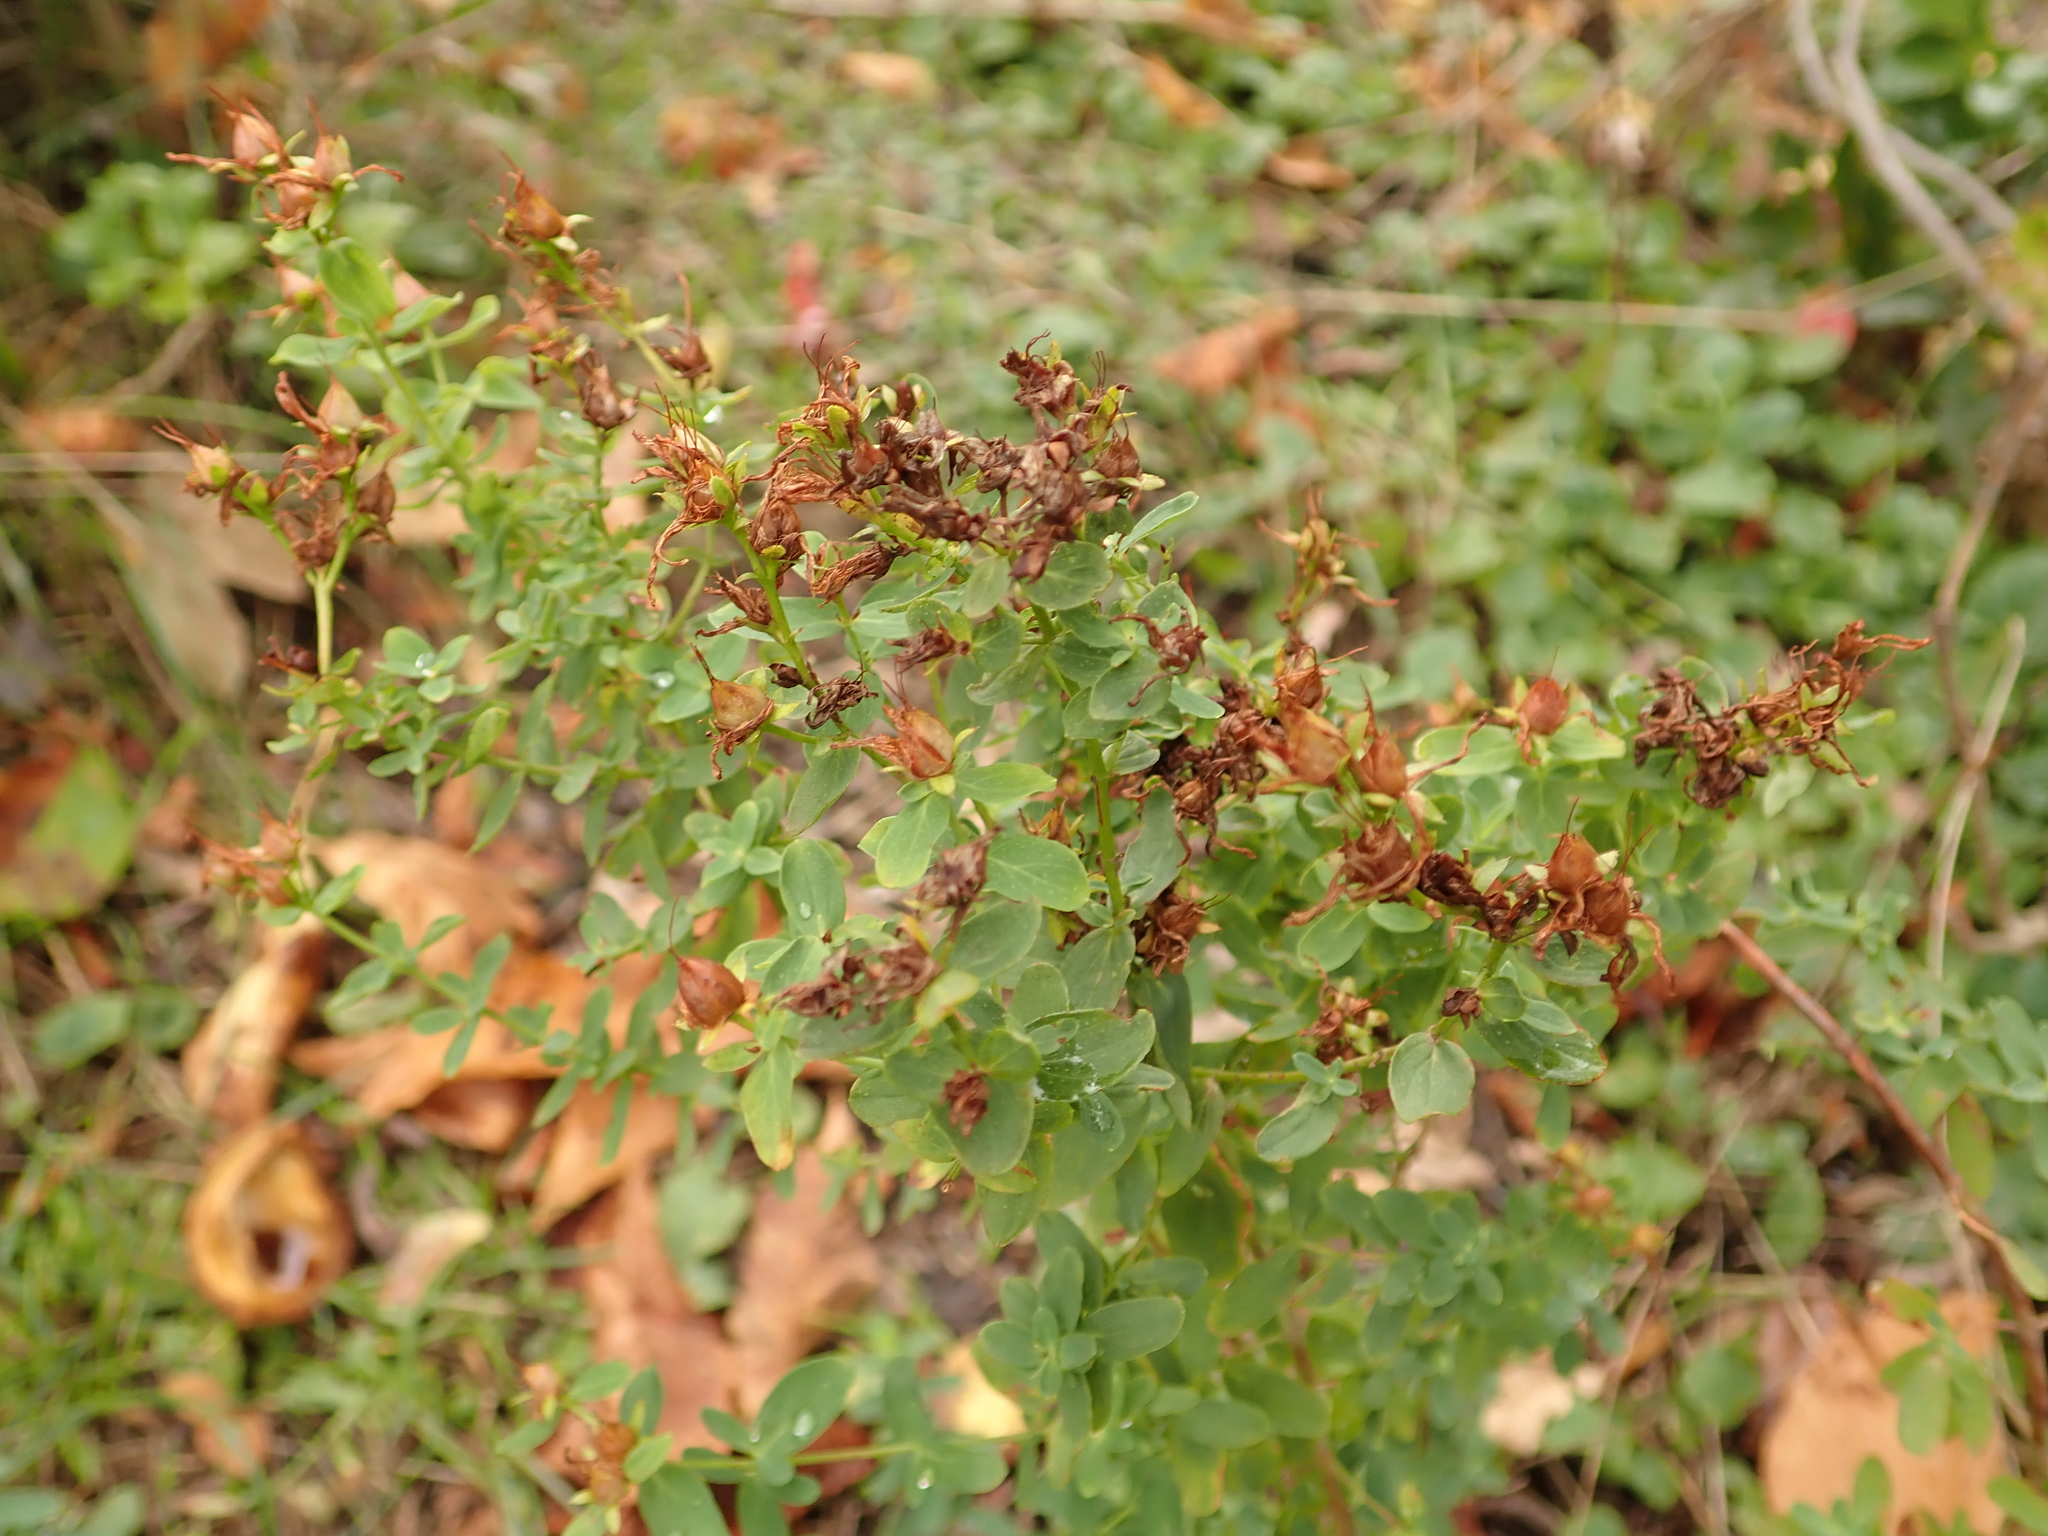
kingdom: Plantae
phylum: Tracheophyta
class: Magnoliopsida
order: Malpighiales
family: Hypericaceae
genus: Hypericum
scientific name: Hypericum perforatum
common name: Common st. johnswort
